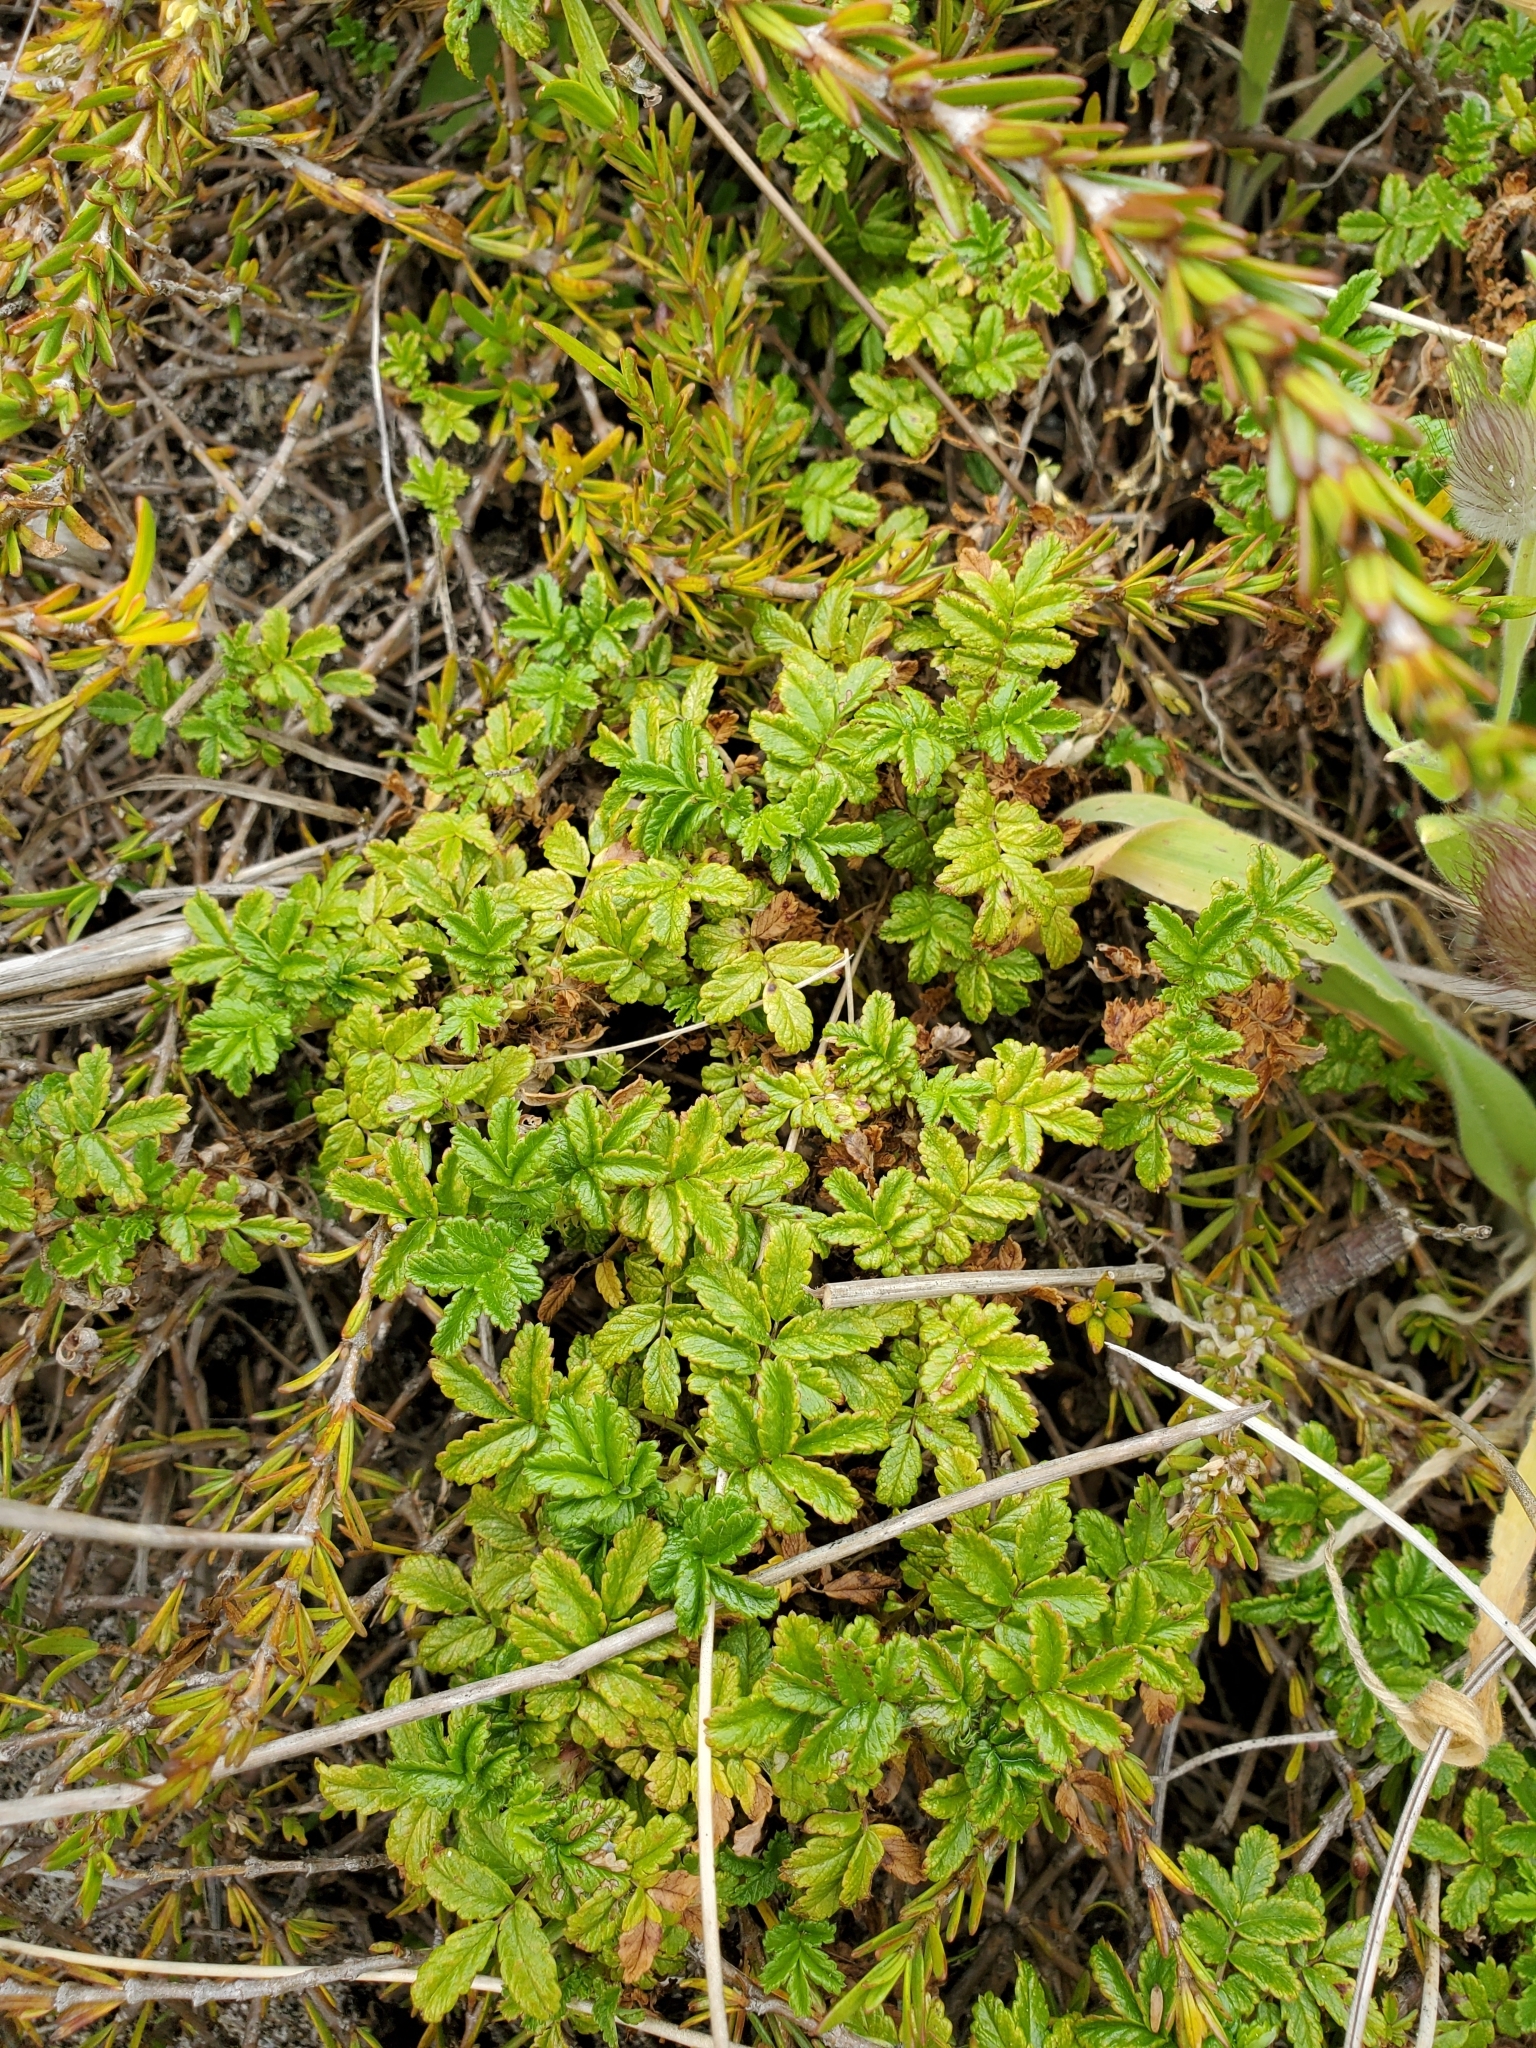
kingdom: Plantae
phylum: Tracheophyta
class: Magnoliopsida
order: Rosales
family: Rosaceae
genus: Acaena
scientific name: Acaena pallida
